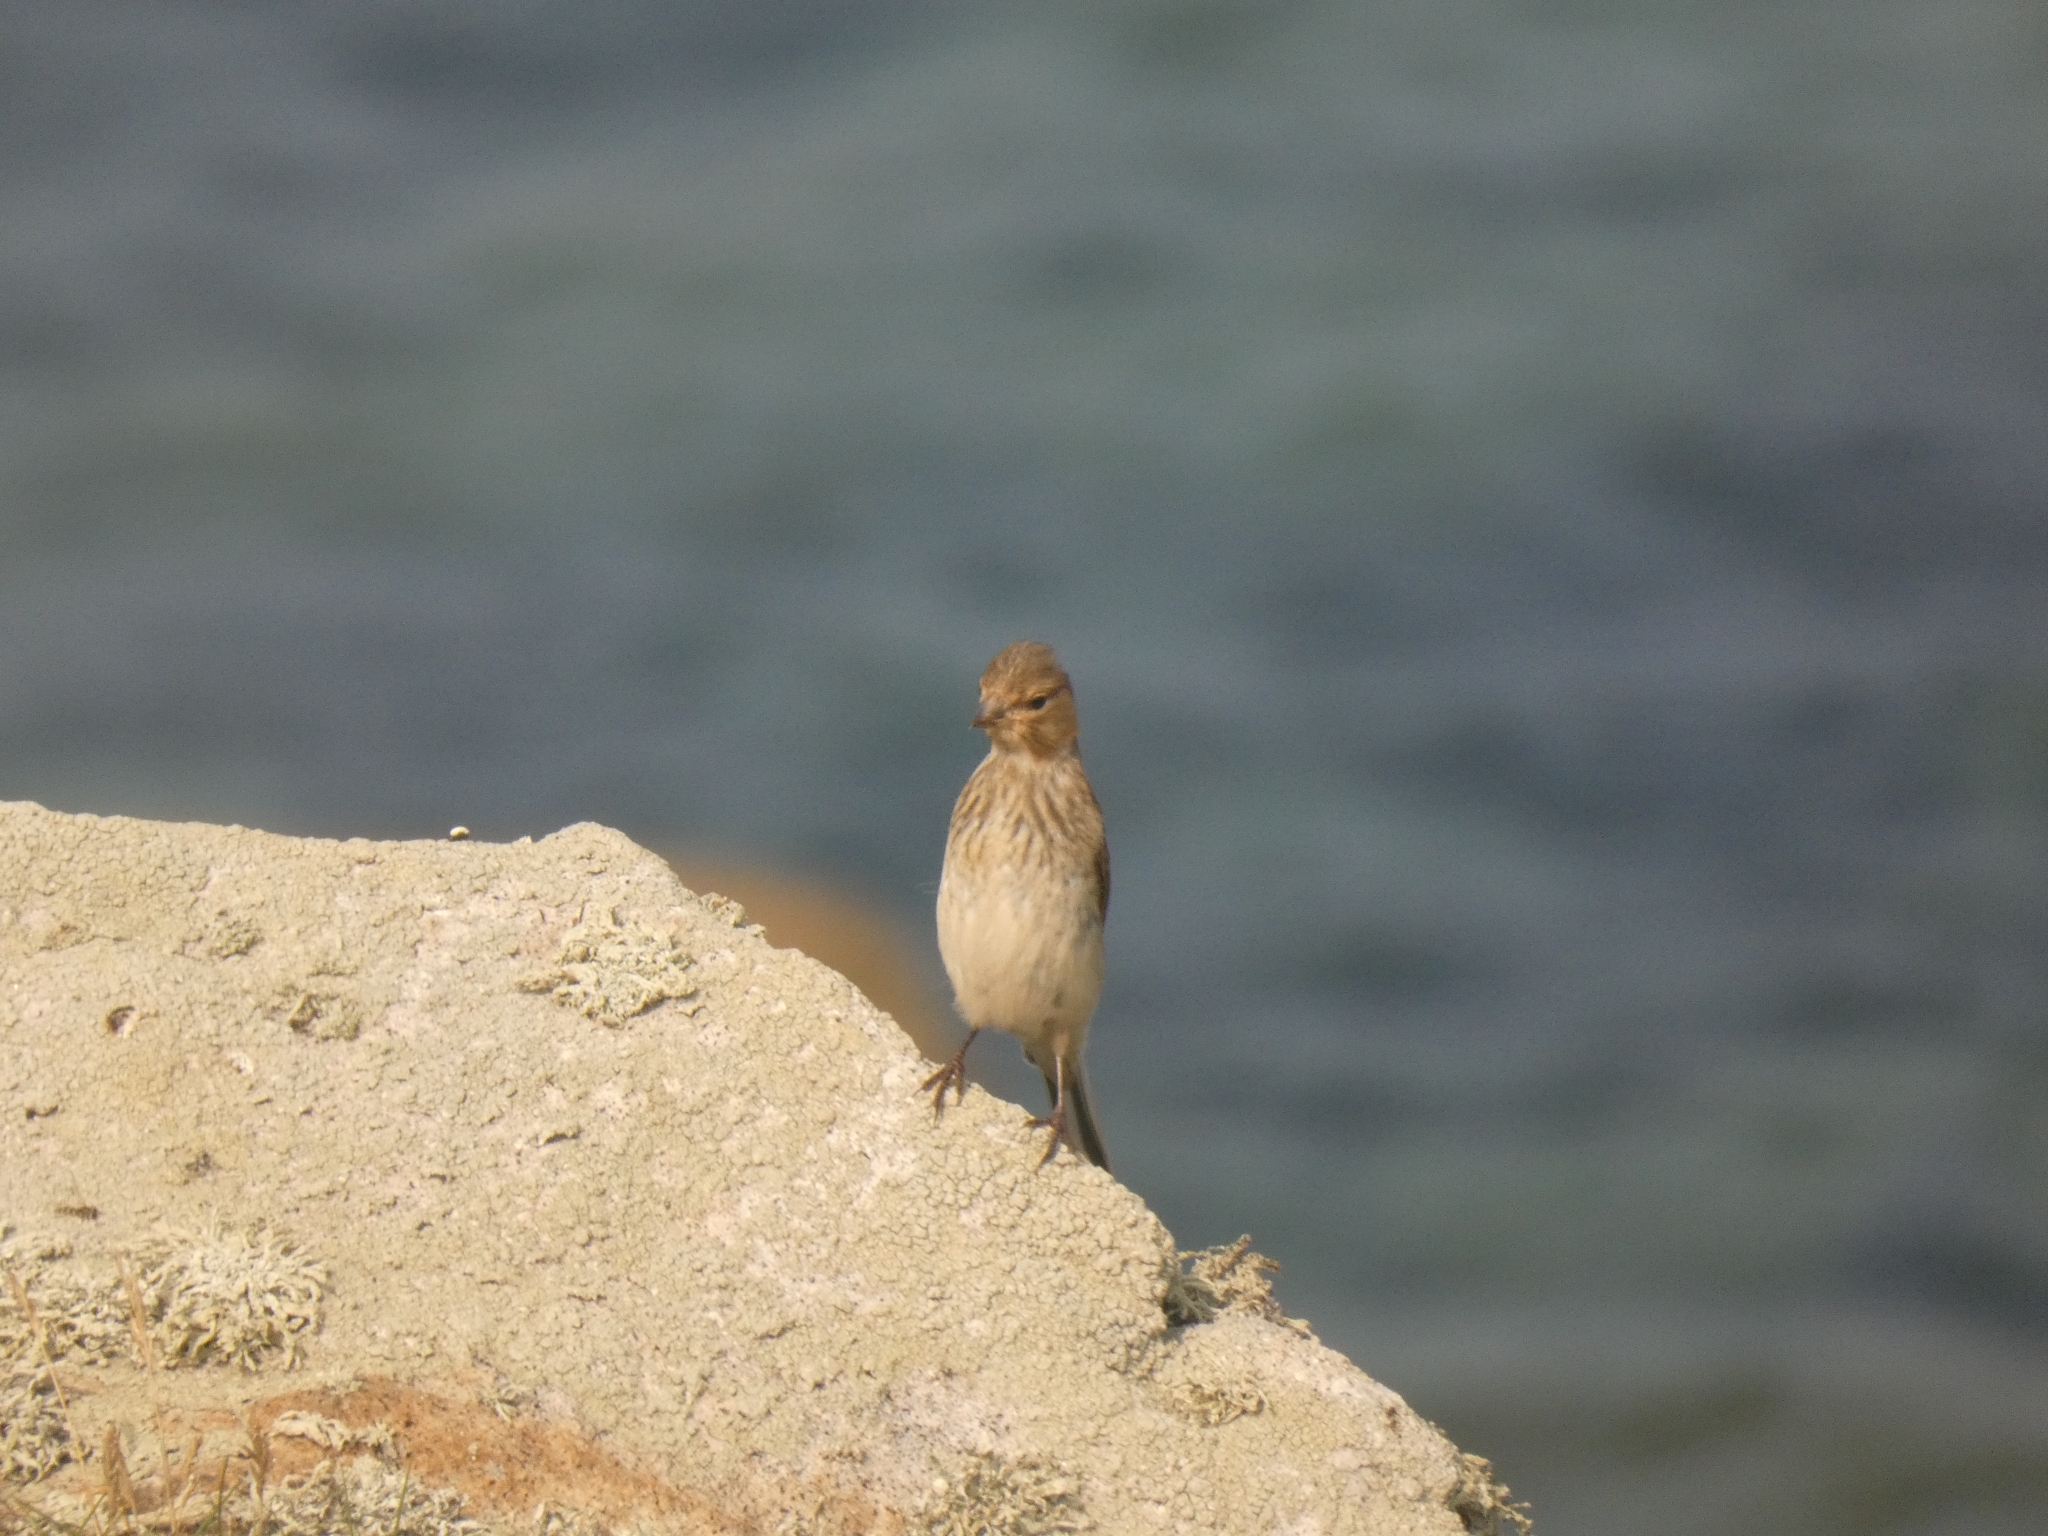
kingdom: Animalia
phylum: Chordata
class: Aves
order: Passeriformes
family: Fringillidae
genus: Linaria
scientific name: Linaria cannabina
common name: Common linnet
